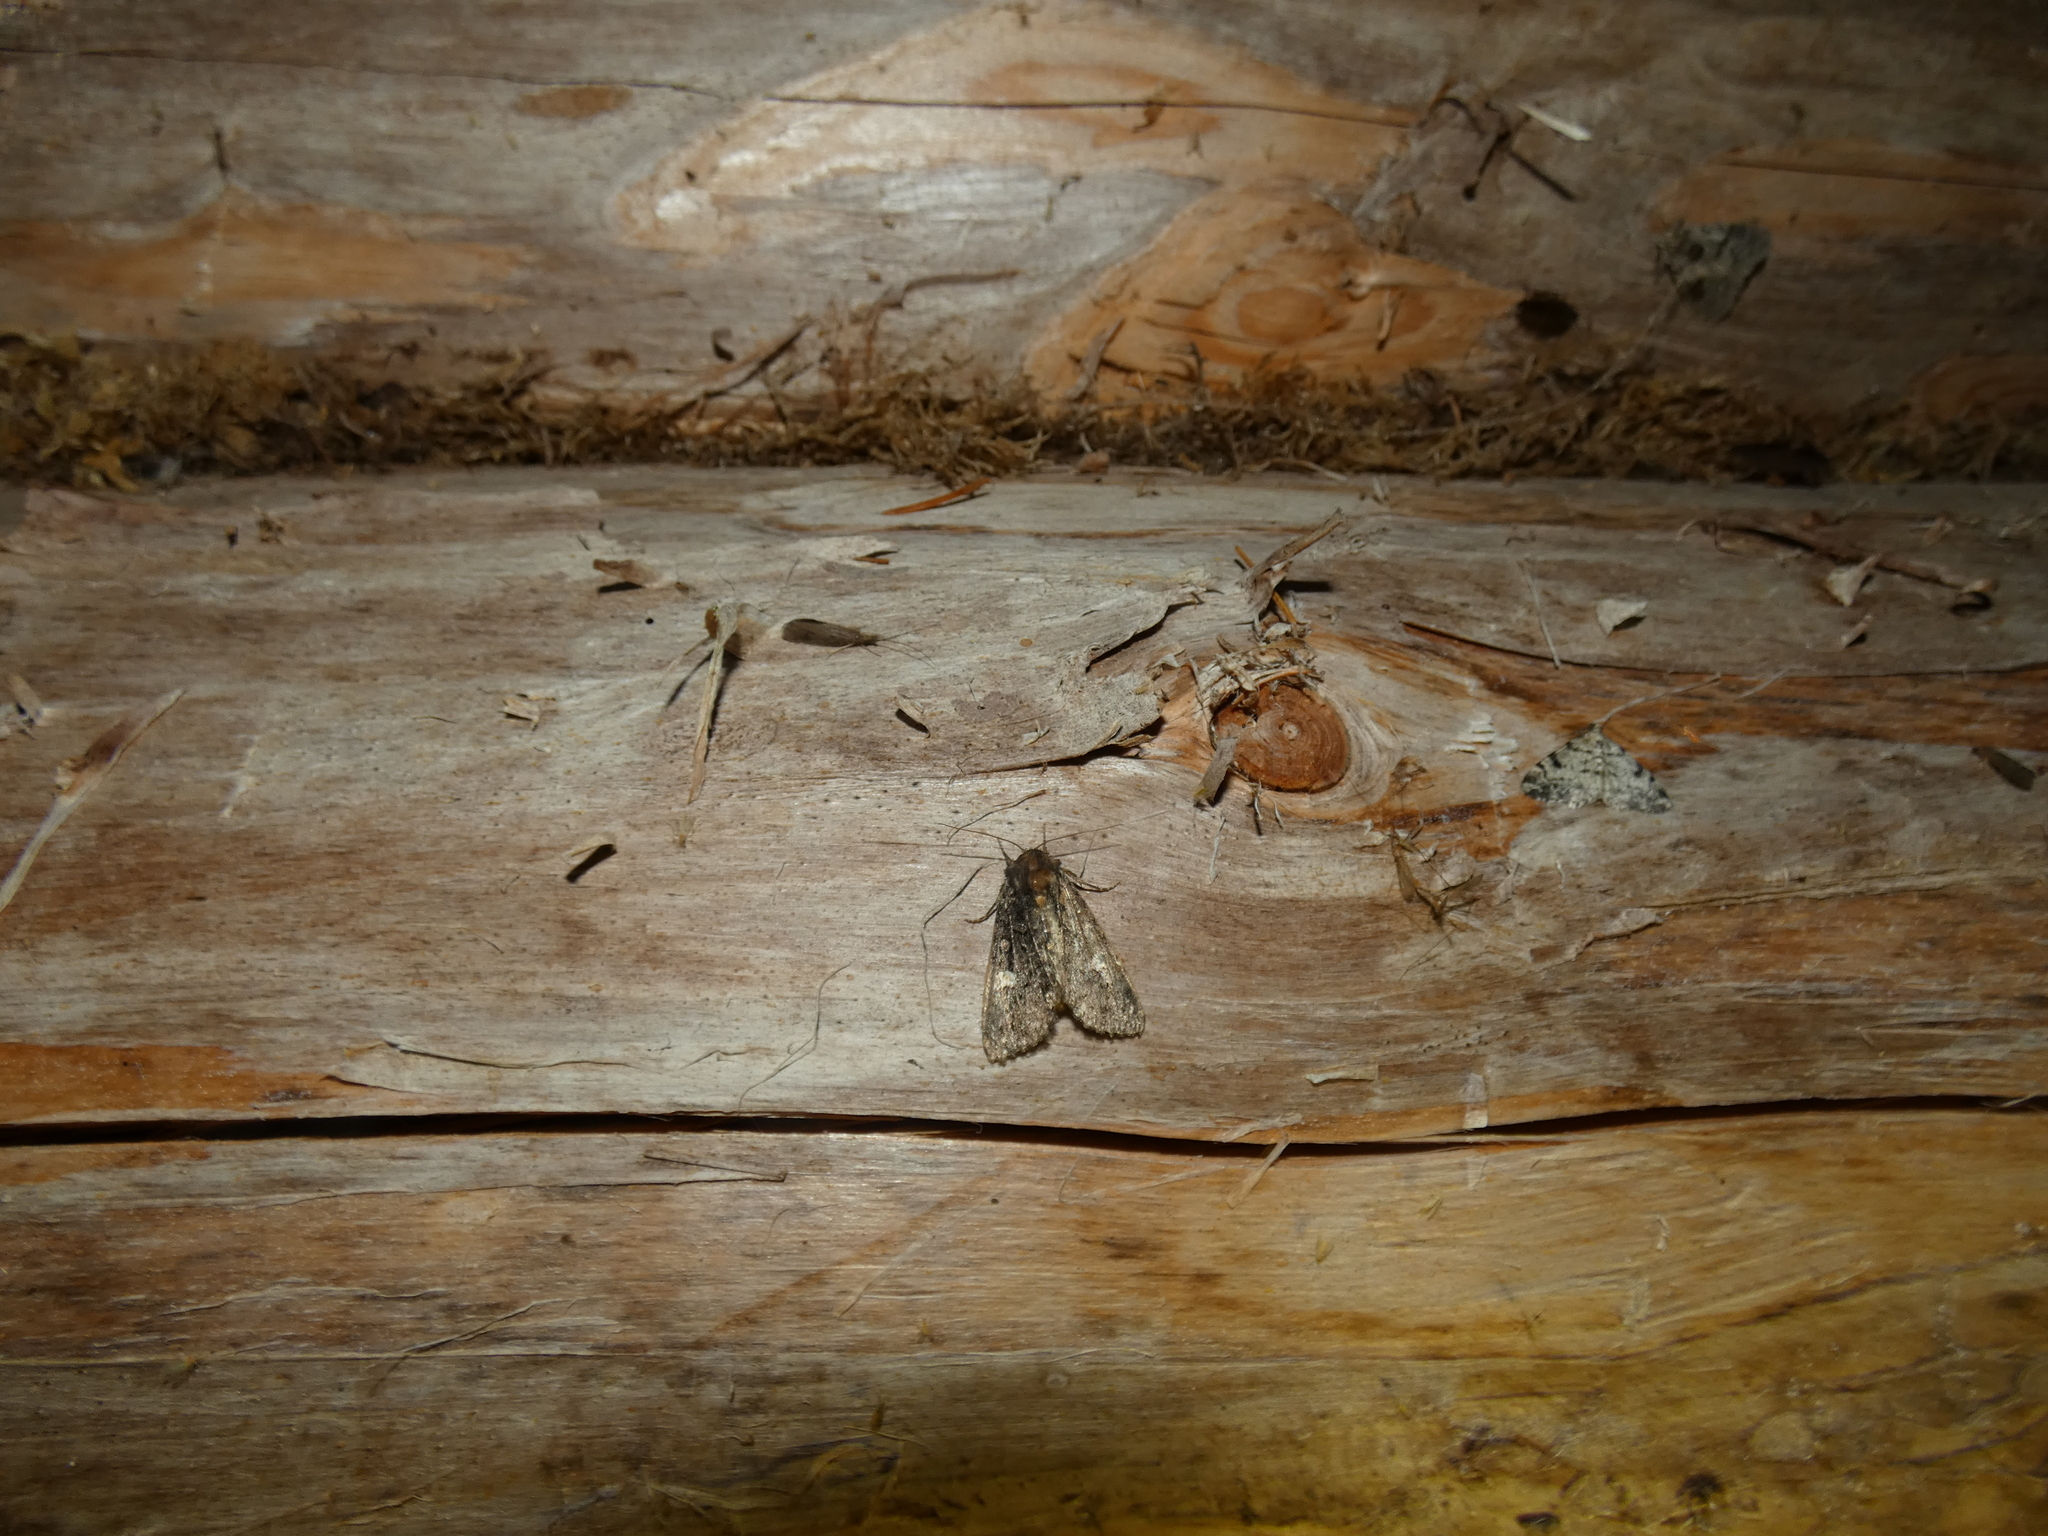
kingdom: Animalia
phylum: Arthropoda
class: Insecta
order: Lepidoptera
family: Noctuidae
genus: Melanchra
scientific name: Melanchra persicariae
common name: Dot moth
